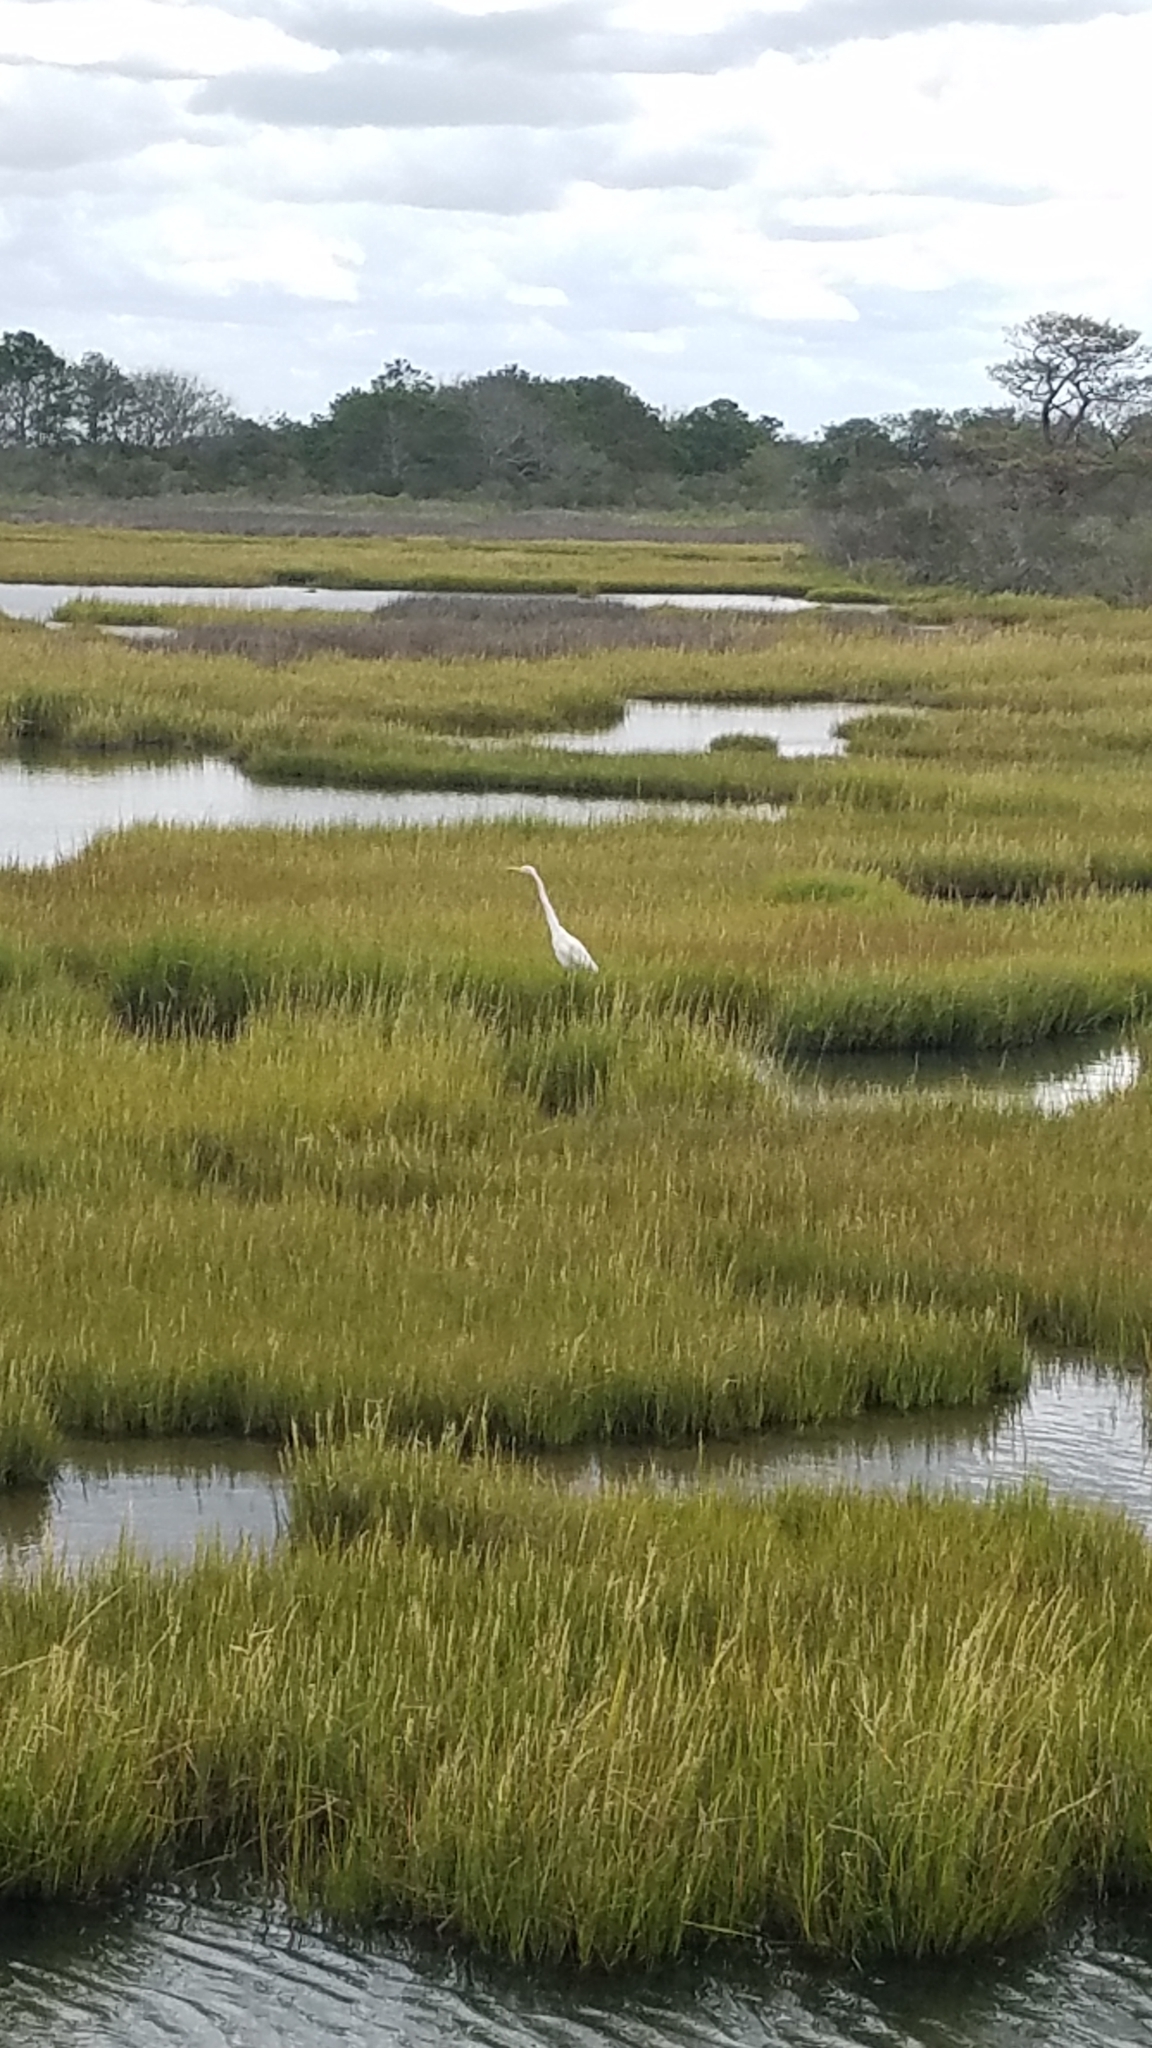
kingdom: Animalia
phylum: Chordata
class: Aves
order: Pelecaniformes
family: Ardeidae
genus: Ardea
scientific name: Ardea alba
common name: Great egret
